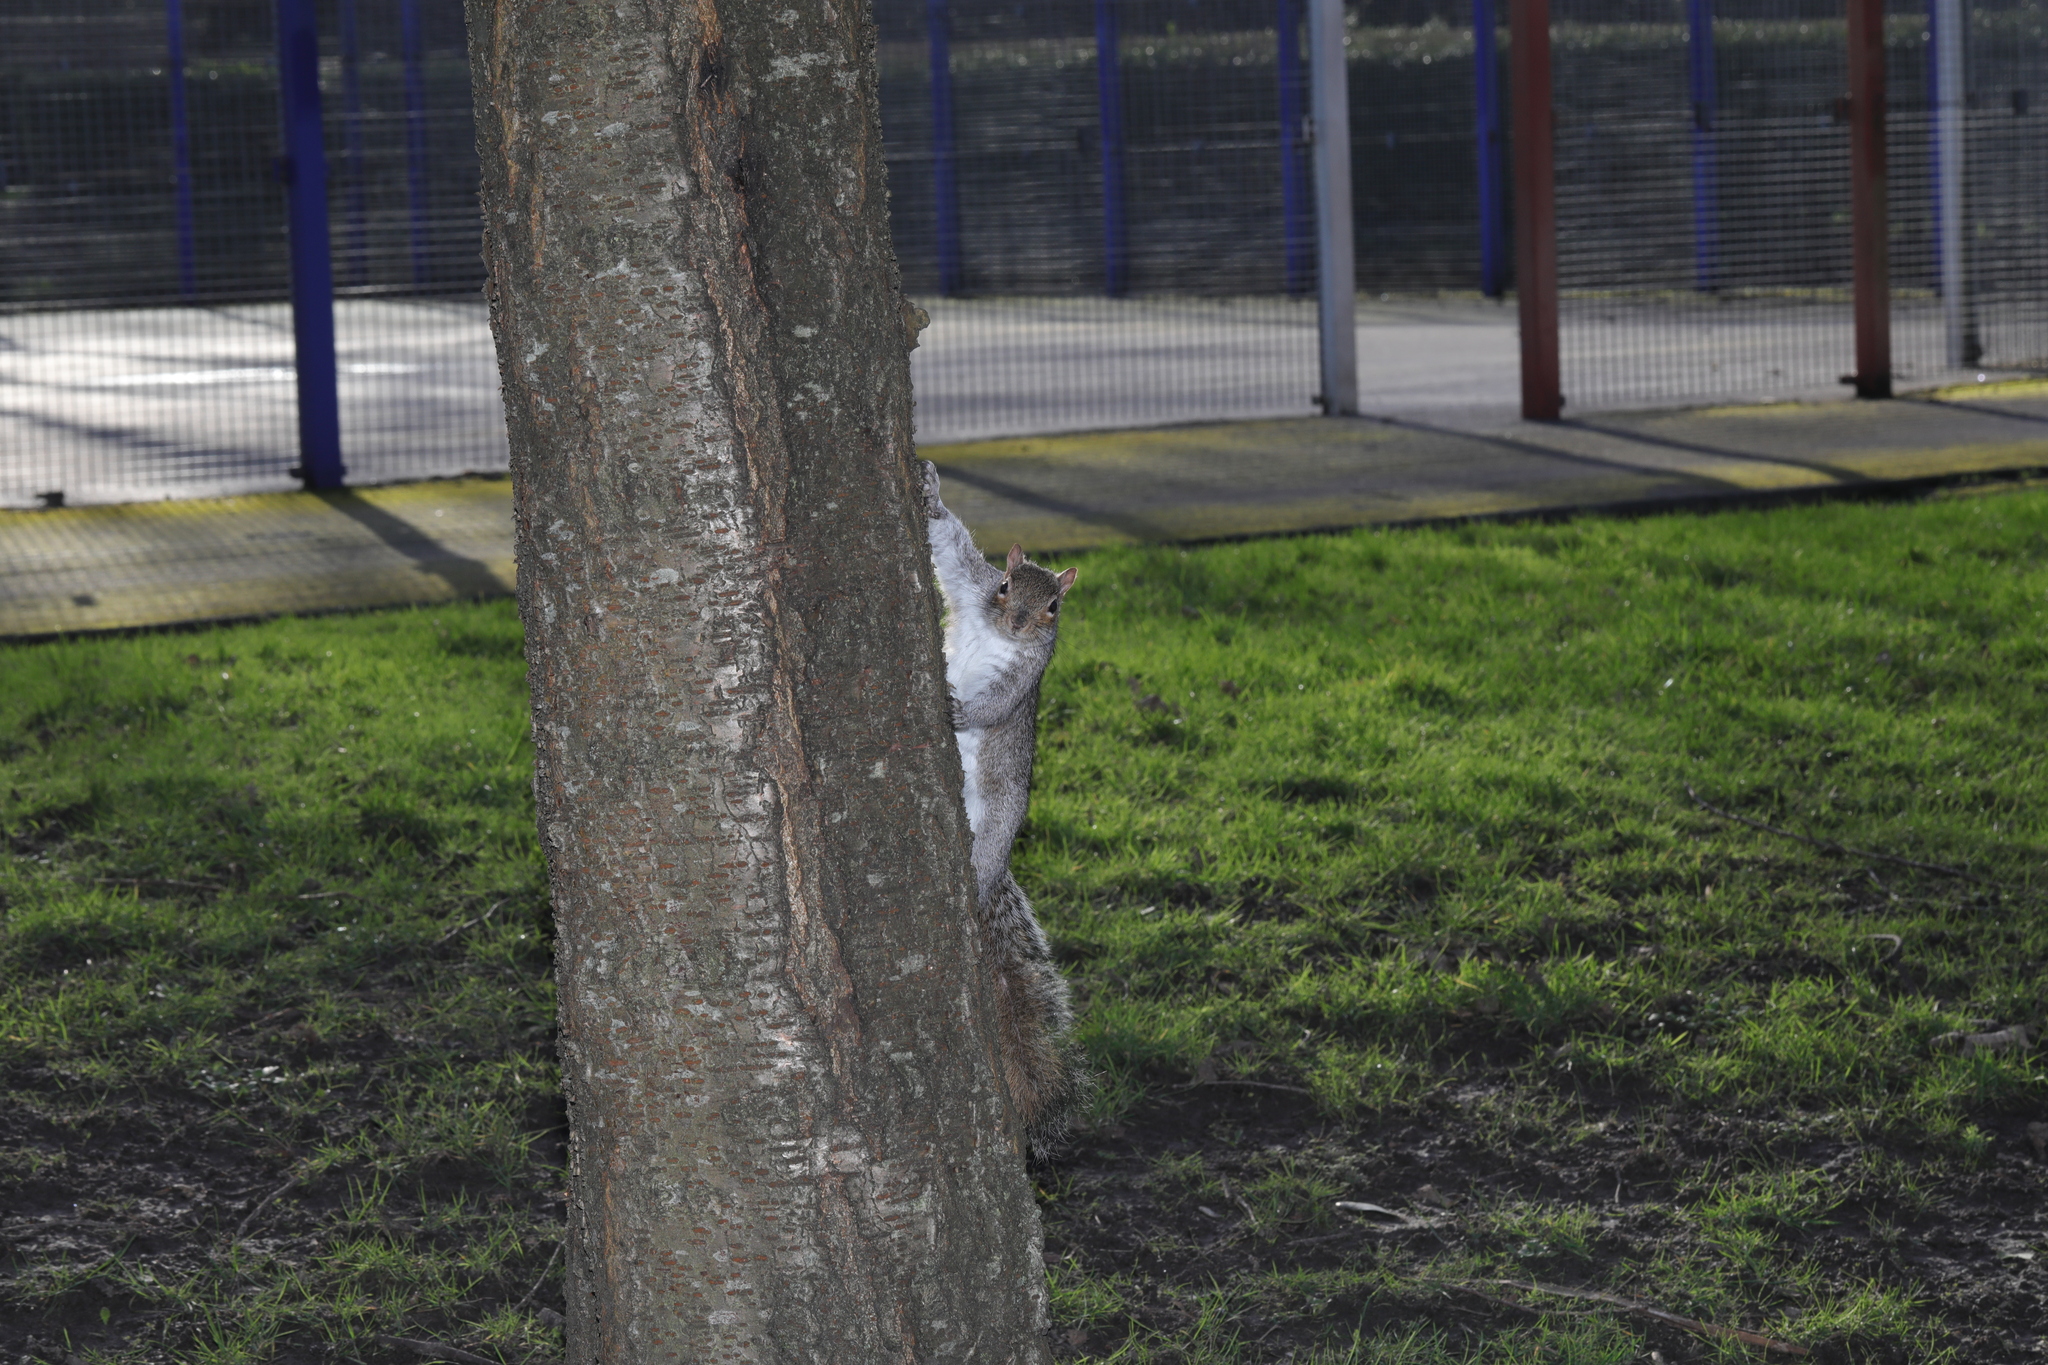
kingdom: Animalia
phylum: Chordata
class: Mammalia
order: Rodentia
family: Sciuridae
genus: Sciurus
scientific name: Sciurus carolinensis
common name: Eastern gray squirrel
